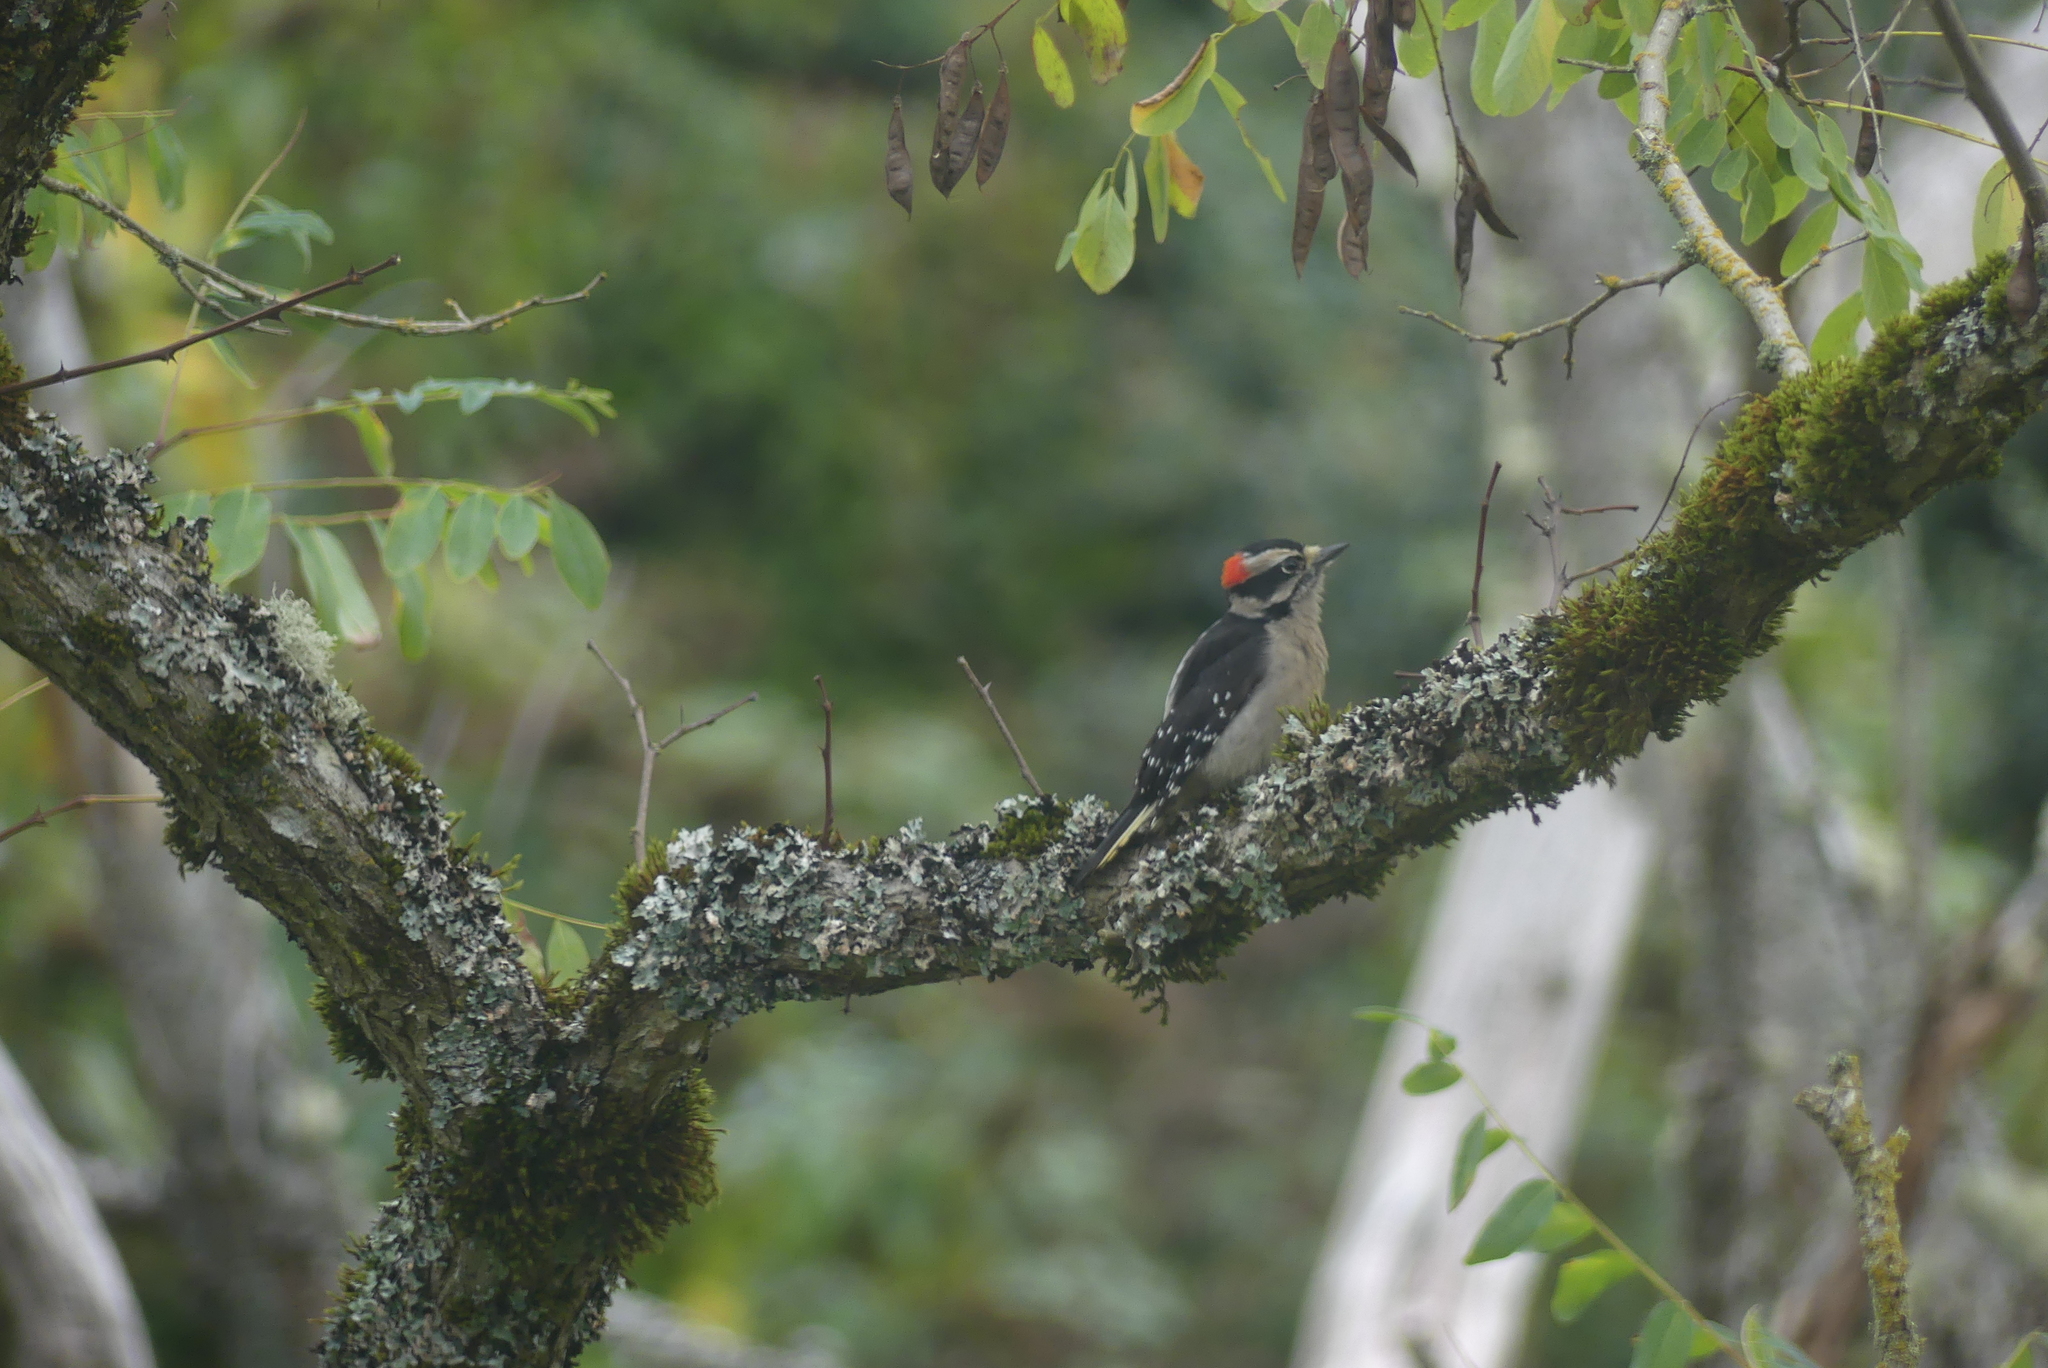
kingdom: Animalia
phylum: Chordata
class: Aves
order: Piciformes
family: Picidae
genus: Dryobates
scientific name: Dryobates pubescens
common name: Downy woodpecker
